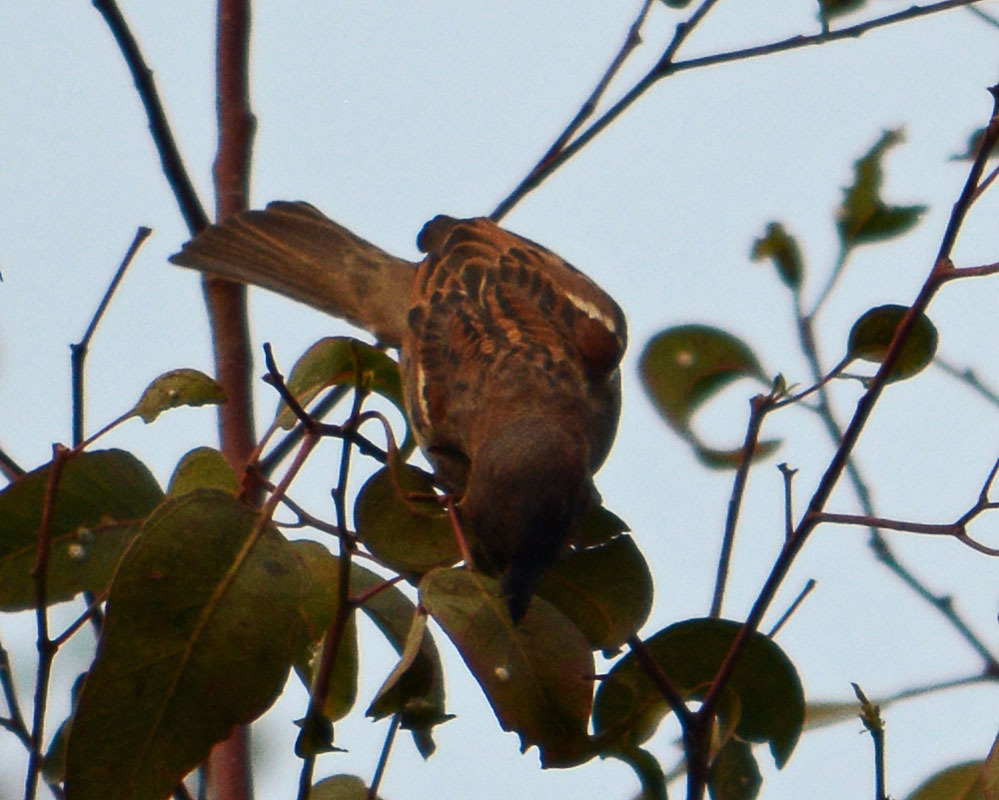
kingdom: Animalia
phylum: Chordata
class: Aves
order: Passeriformes
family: Passeridae
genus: Passer
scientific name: Passer domesticus
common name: House sparrow
